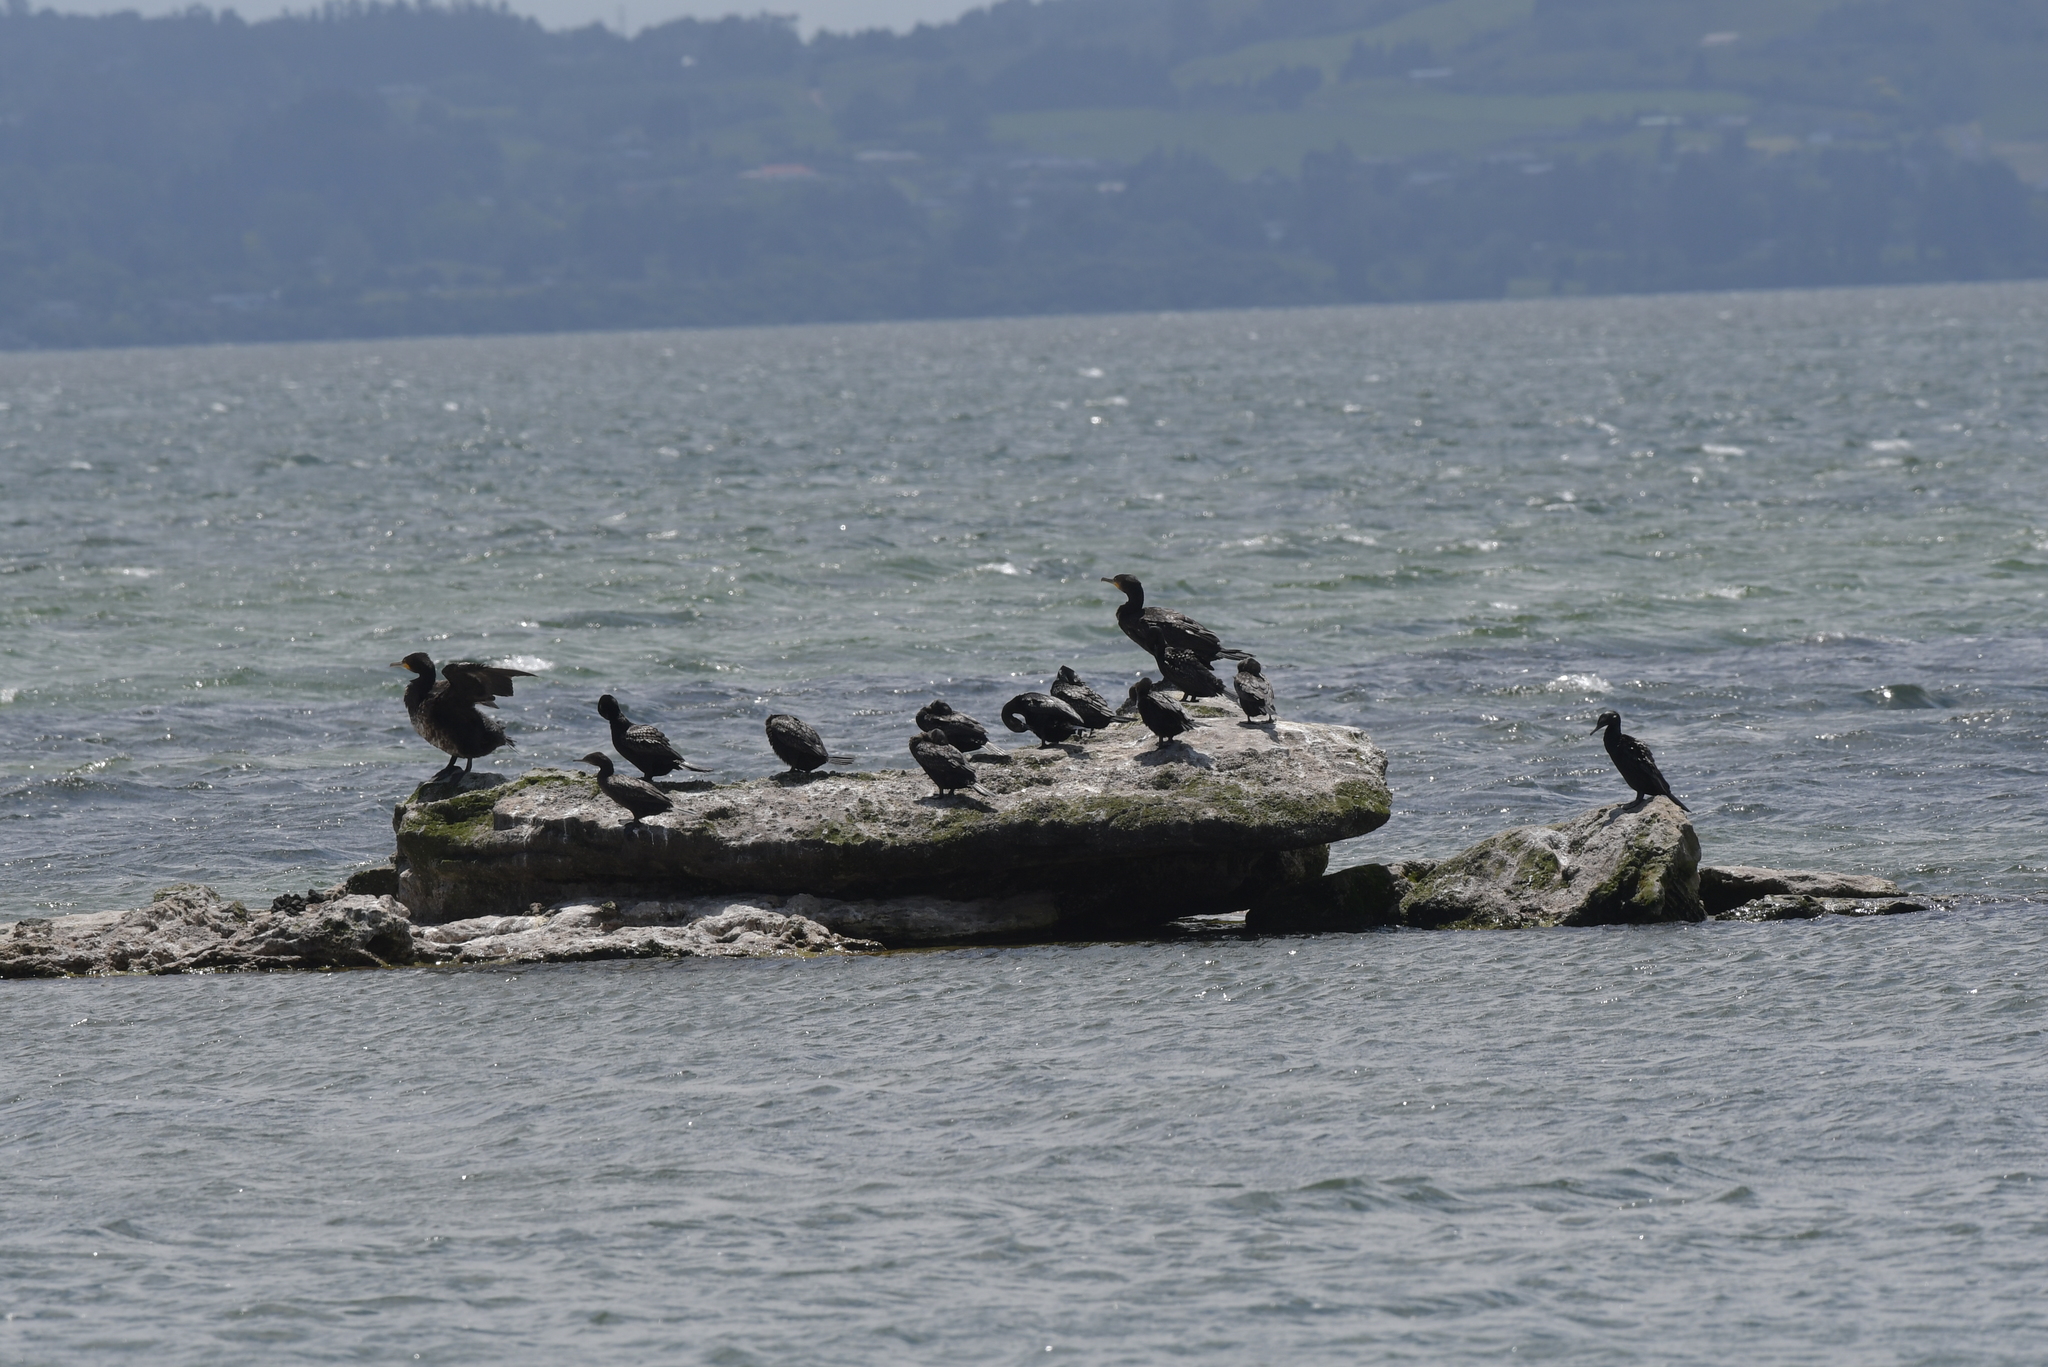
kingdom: Animalia
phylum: Chordata
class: Aves
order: Suliformes
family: Phalacrocoracidae
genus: Phalacrocorax
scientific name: Phalacrocorax carbo
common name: Great cormorant
